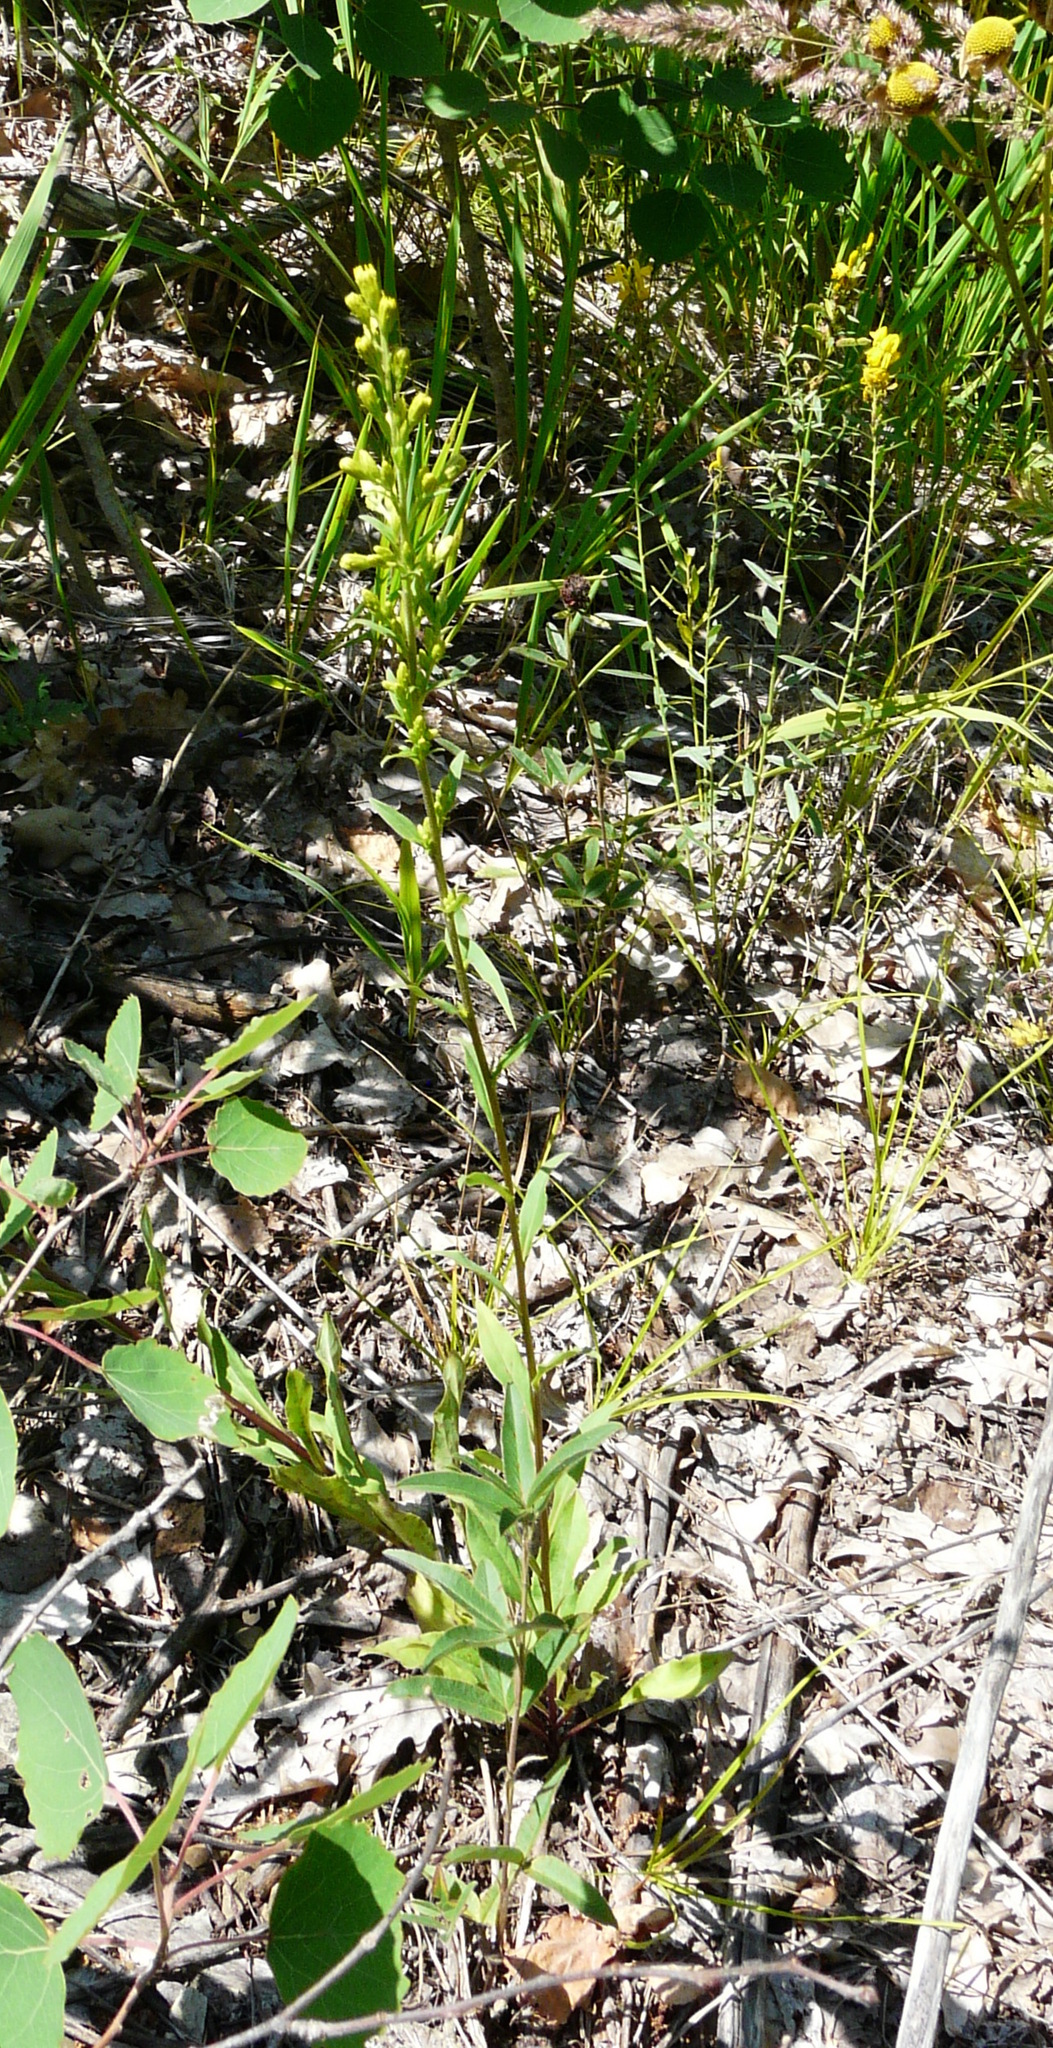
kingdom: Plantae
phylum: Tracheophyta
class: Magnoliopsida
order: Asterales
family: Asteraceae
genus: Solidago
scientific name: Solidago virgaurea
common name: Goldenrod
